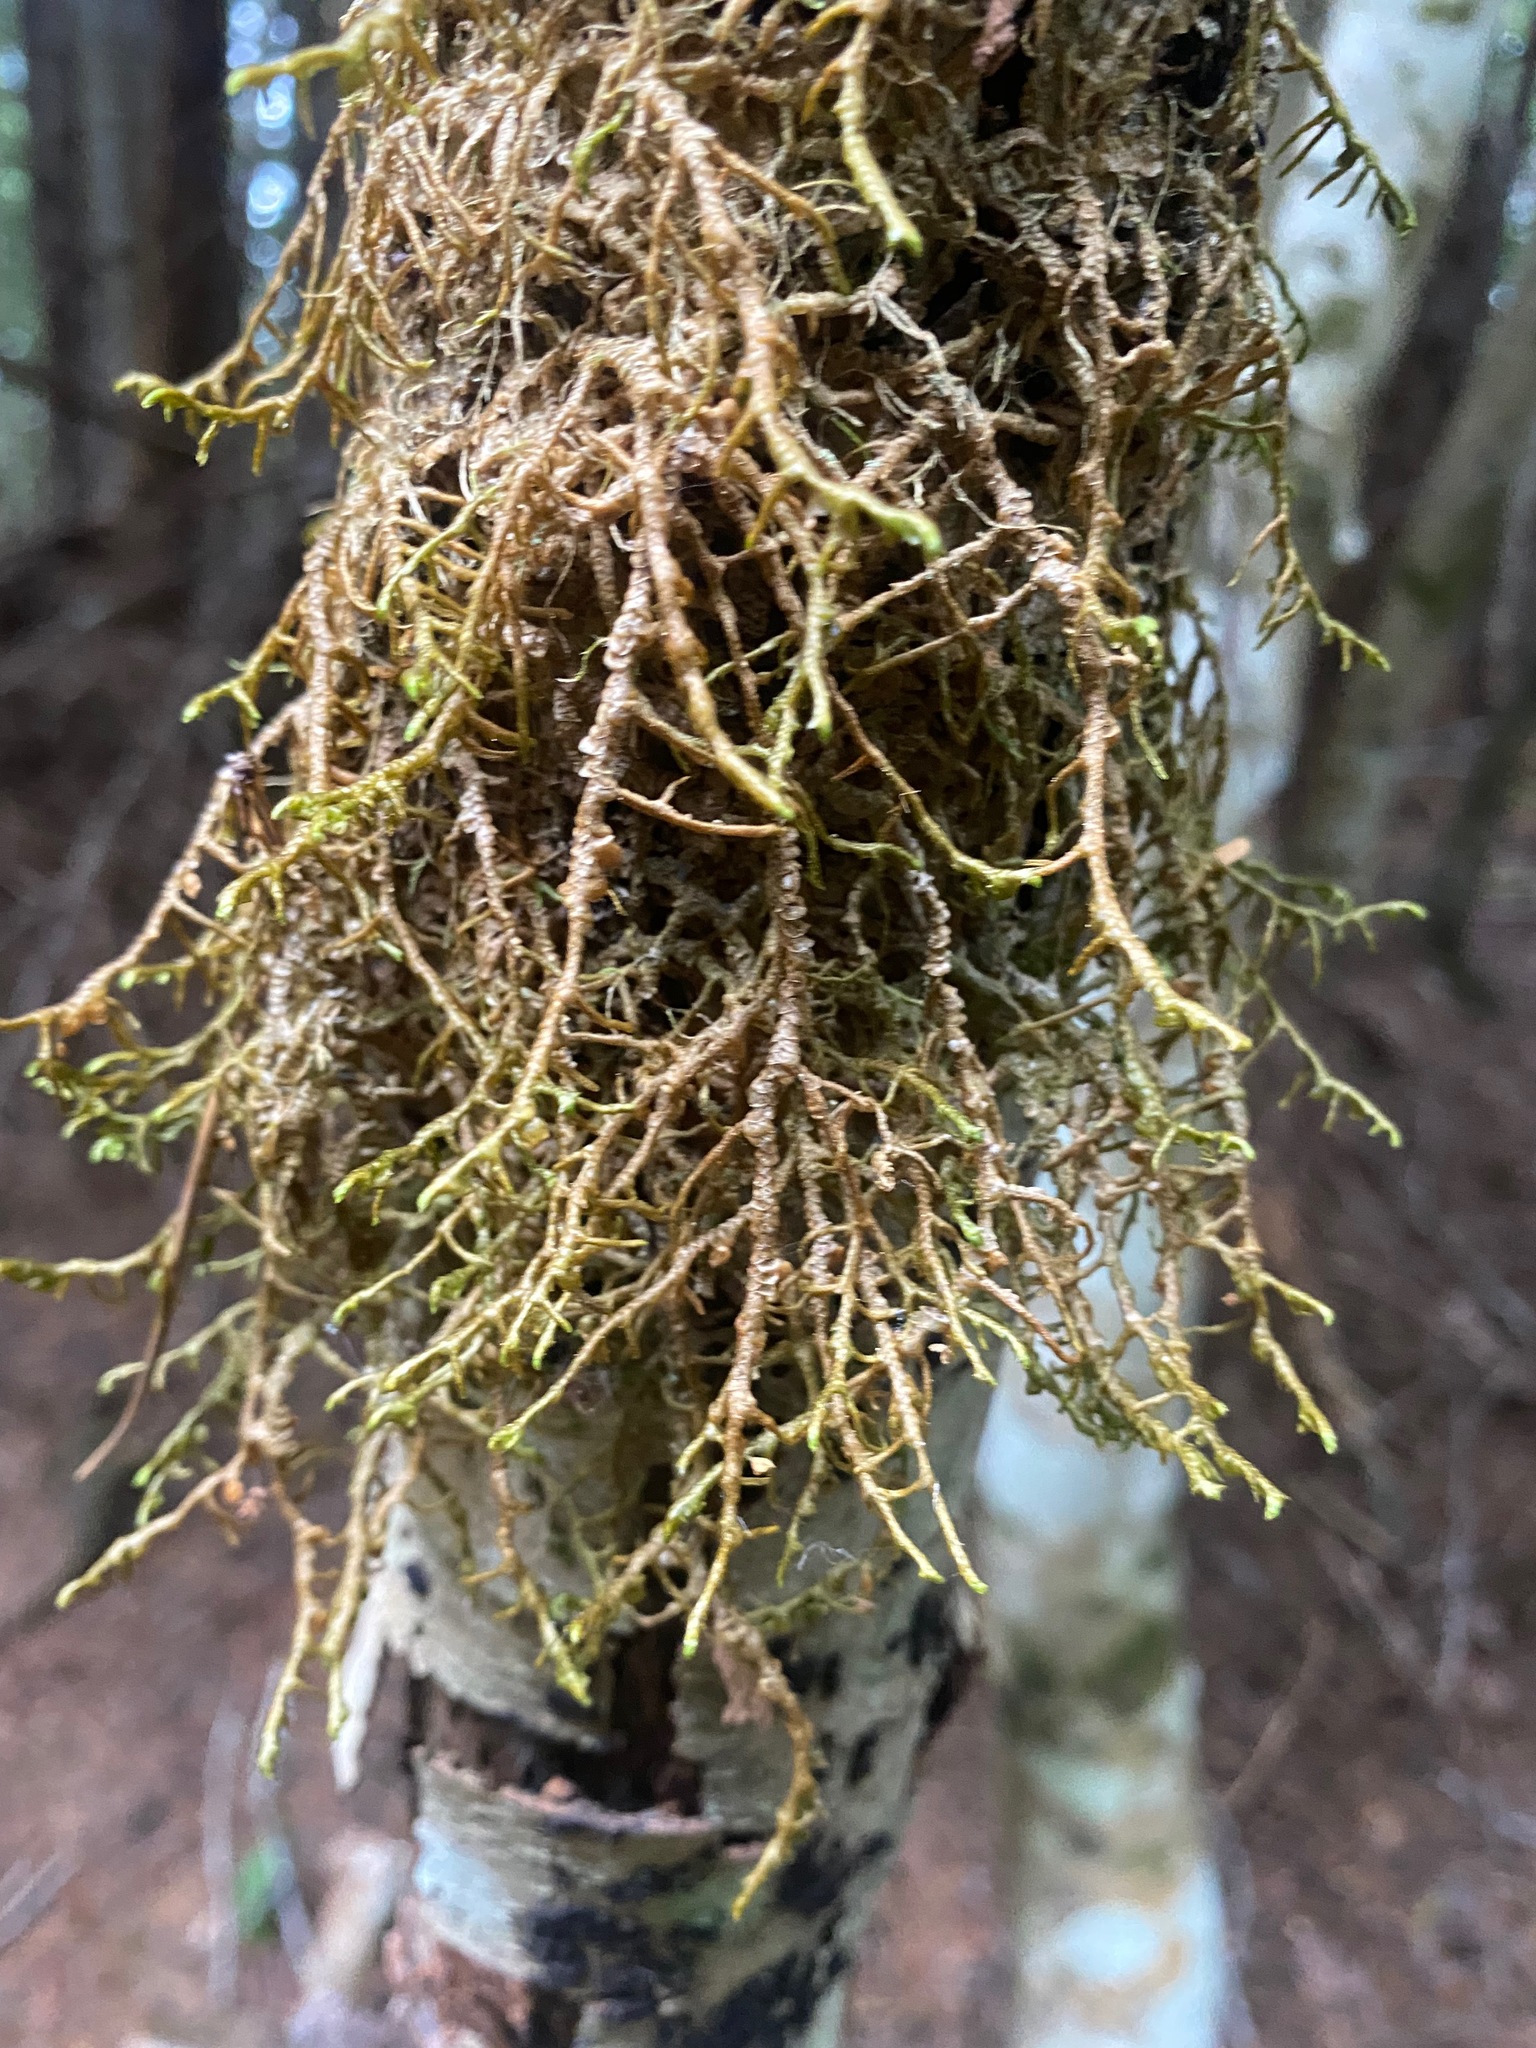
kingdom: Plantae
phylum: Marchantiophyta
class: Jungermanniopsida
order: Porellales
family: Porellaceae
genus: Porella
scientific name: Porella navicularis
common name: Tree ruffle liverwort
